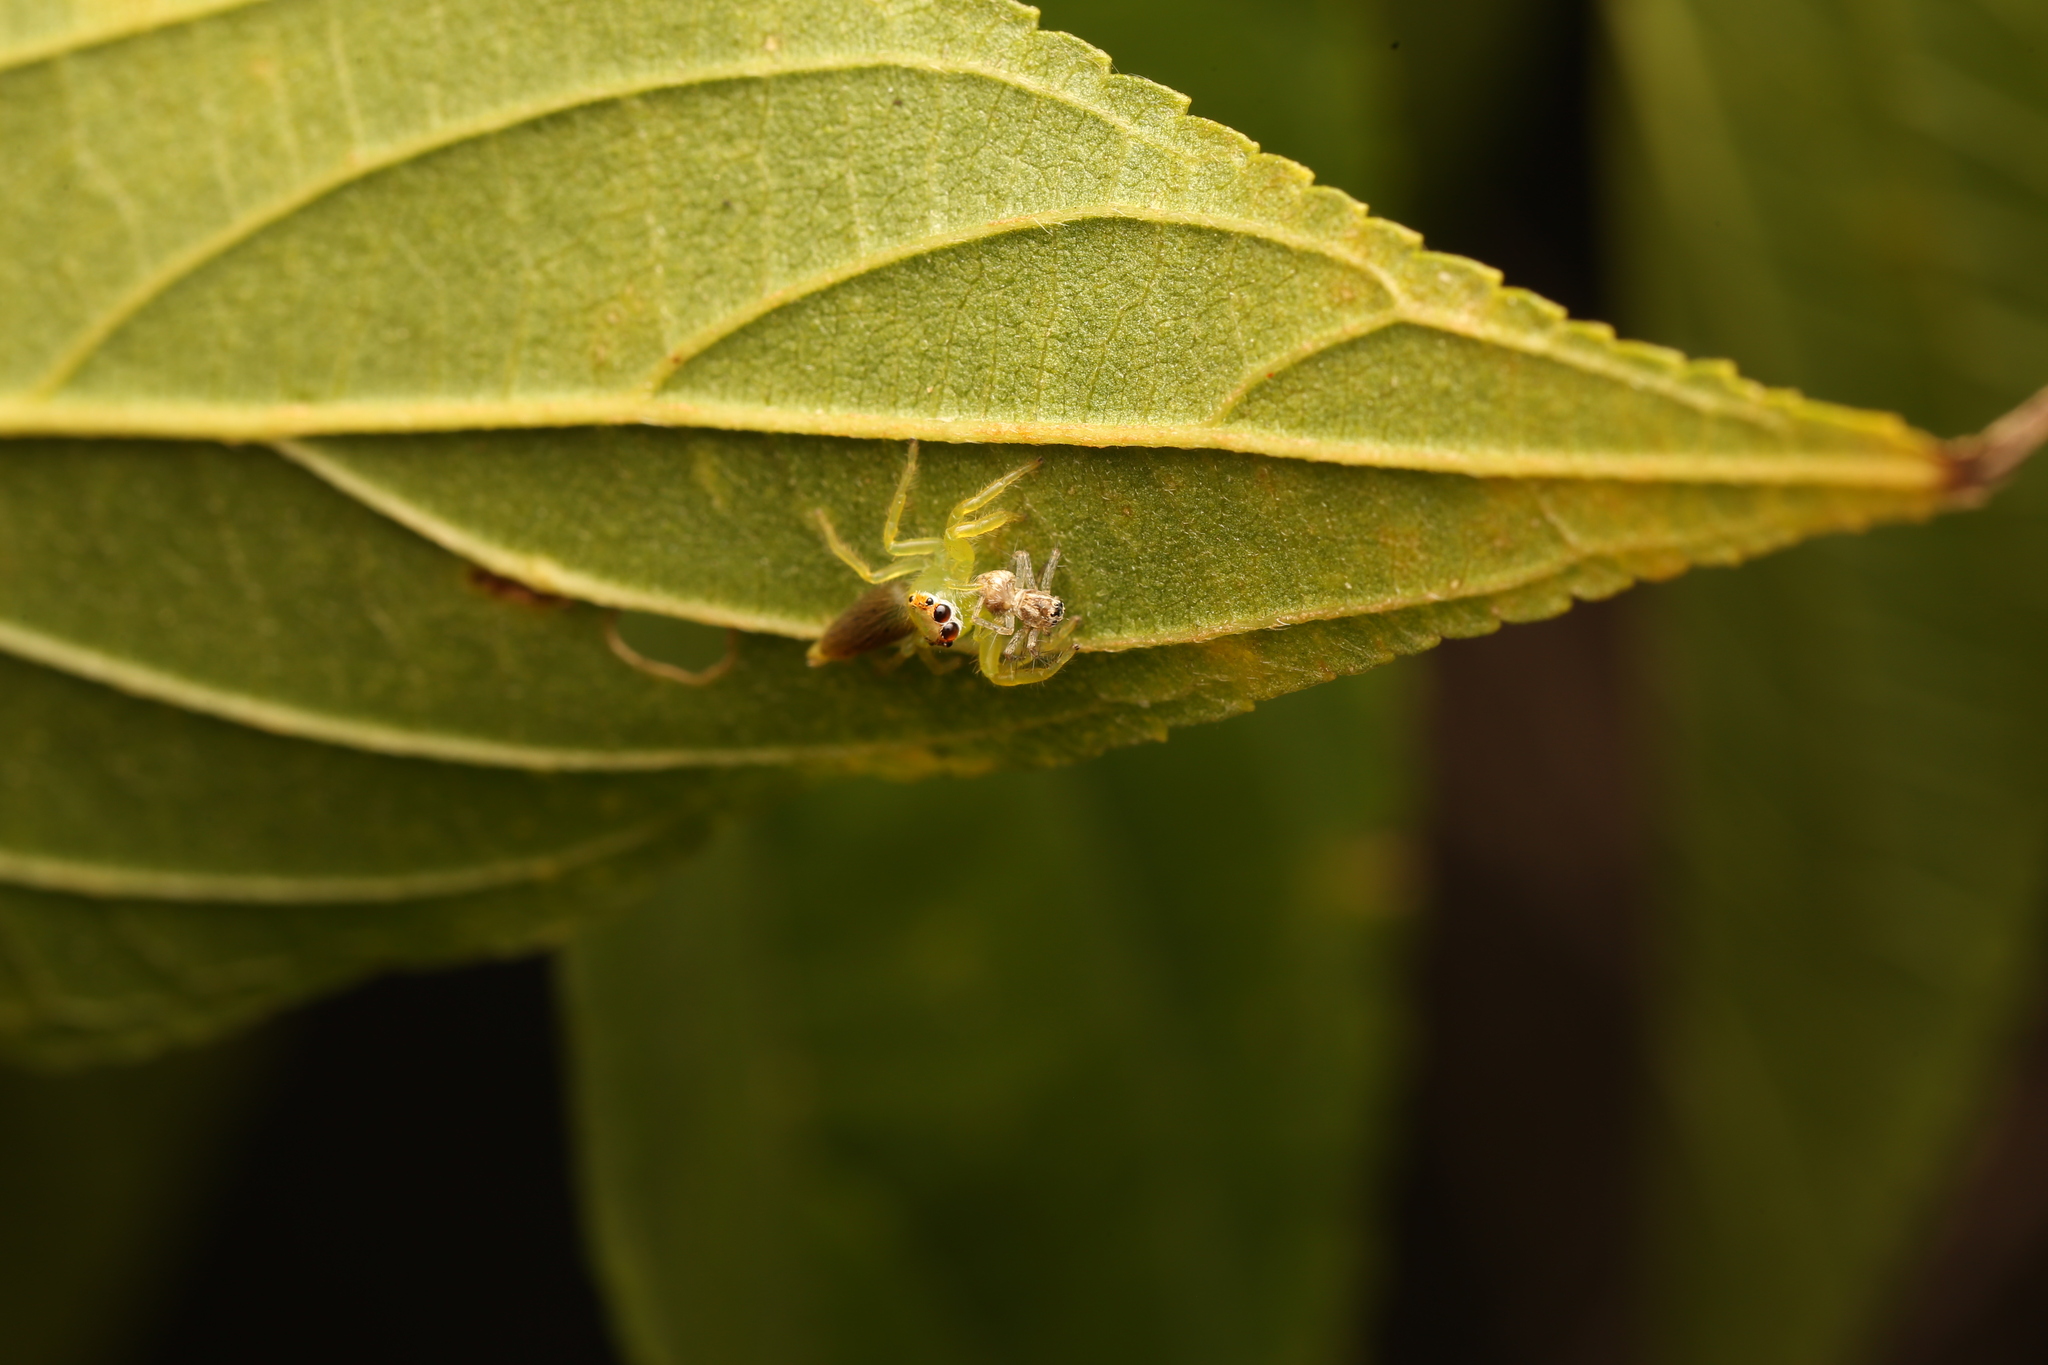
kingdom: Animalia
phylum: Arthropoda
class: Arachnida
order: Araneae
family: Salticidae
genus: Mopsus
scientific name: Mopsus mormon
